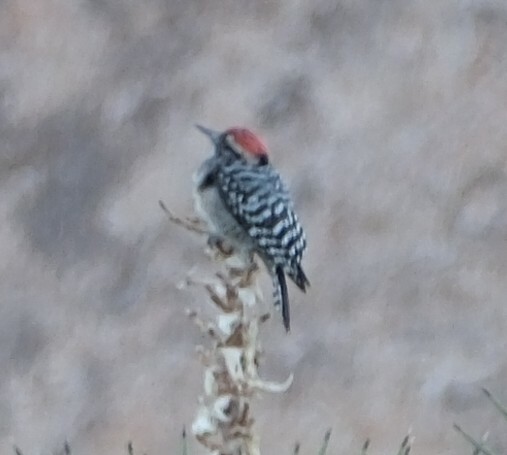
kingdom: Animalia
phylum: Chordata
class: Aves
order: Piciformes
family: Picidae
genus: Dryobates
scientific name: Dryobates scalaris
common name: Ladder-backed woodpecker
